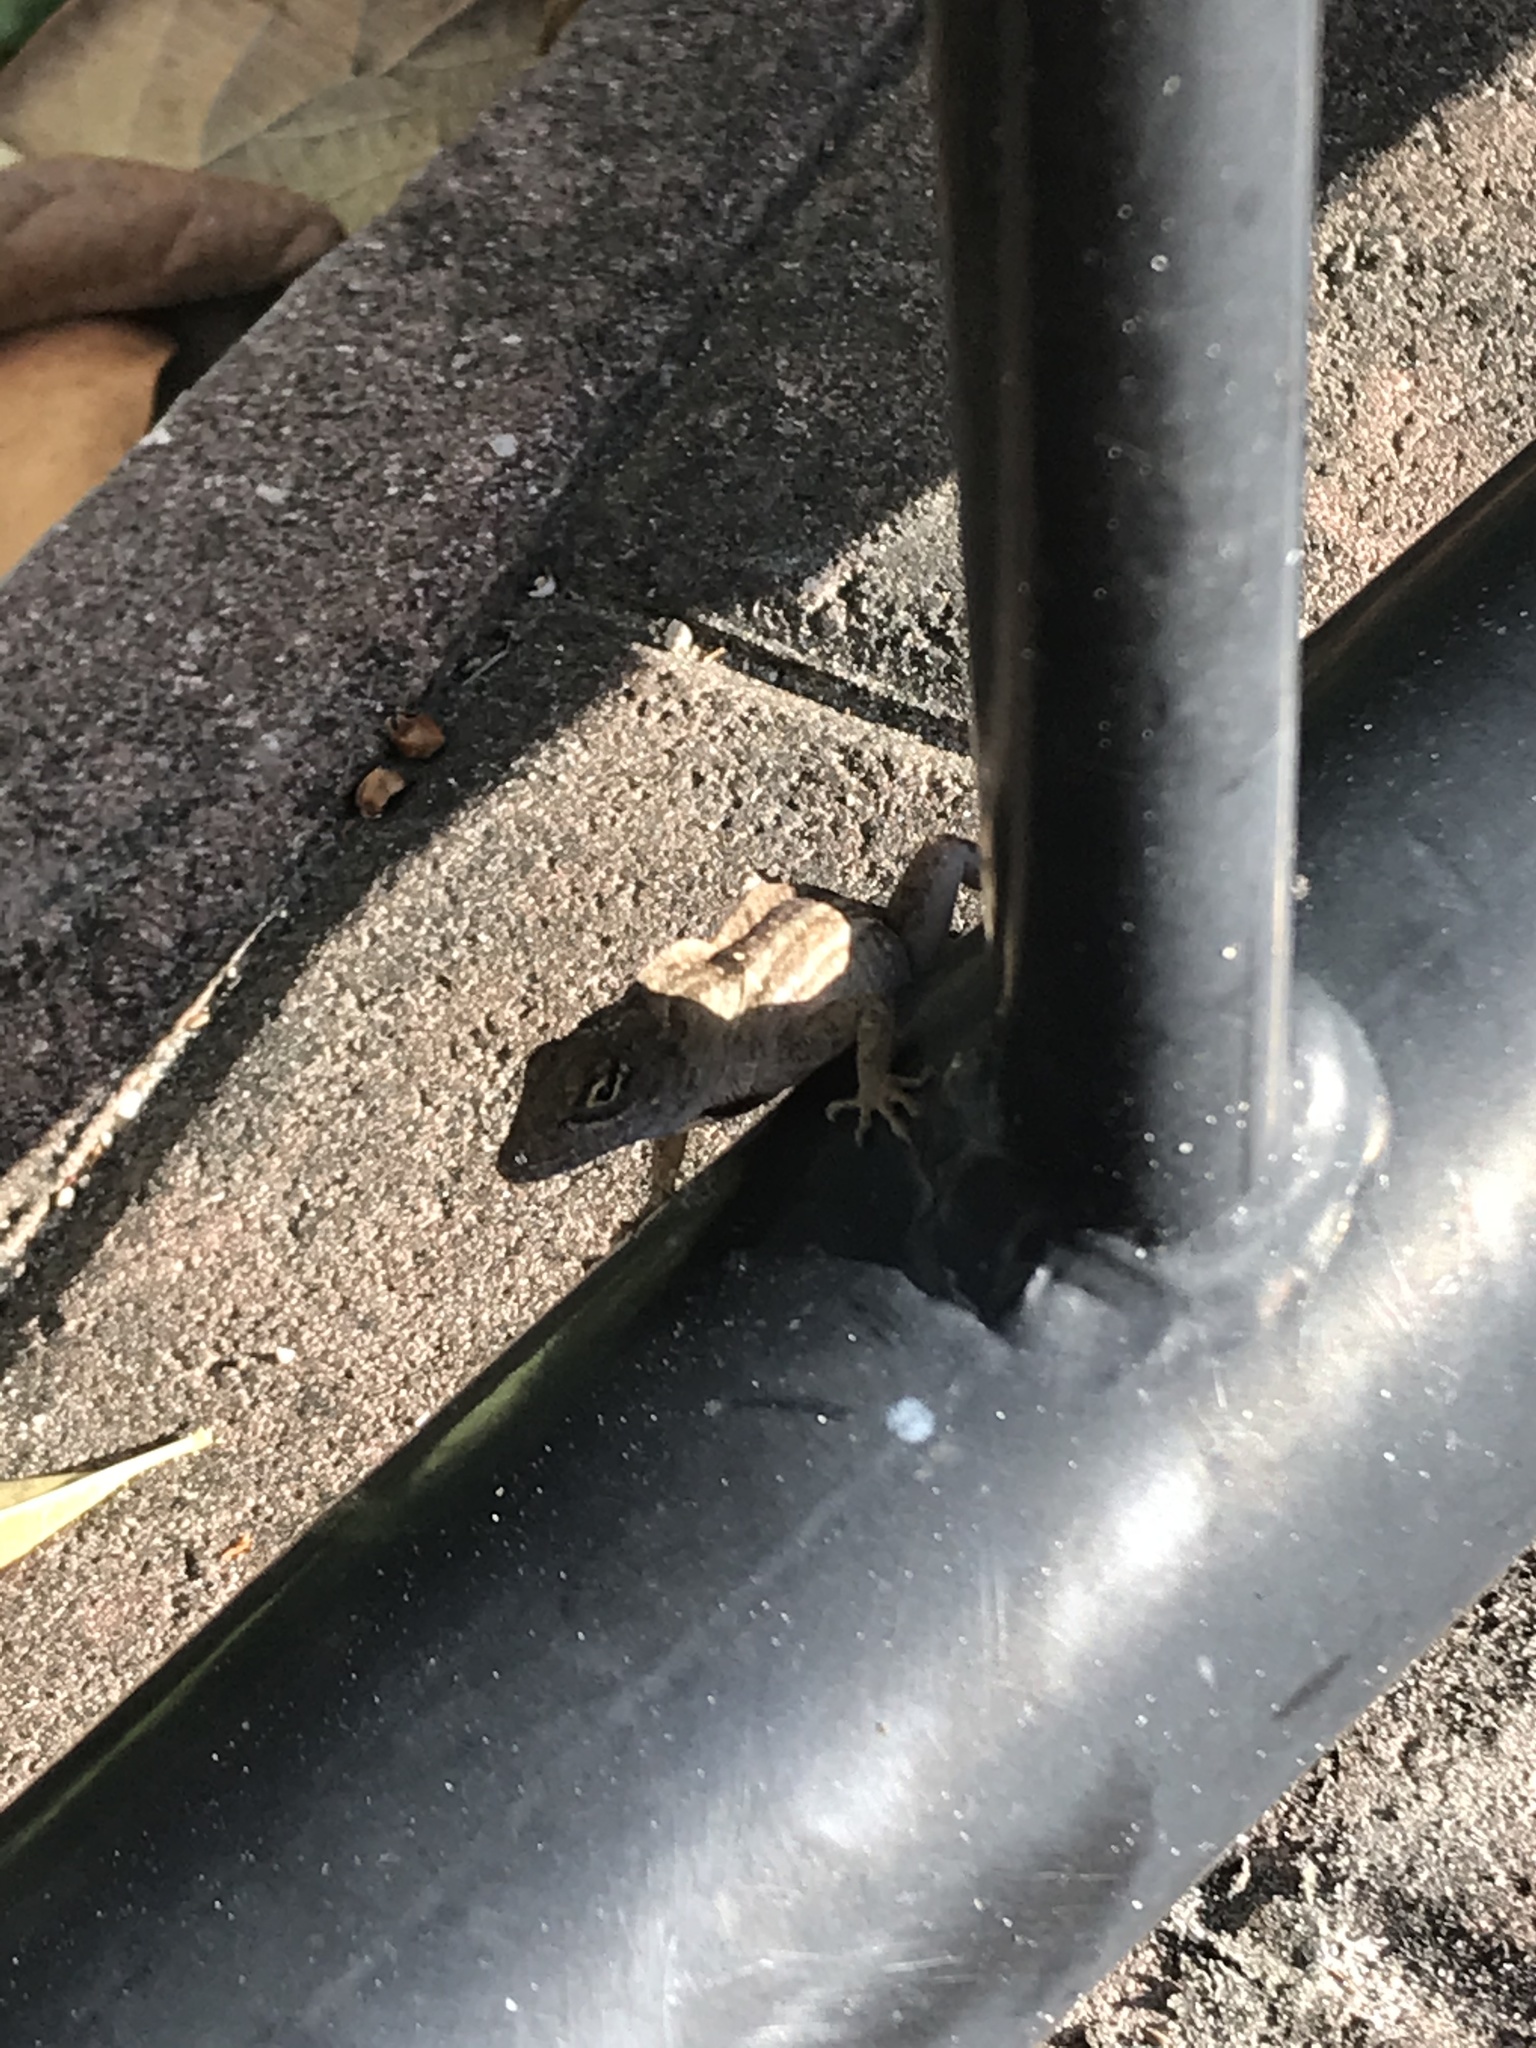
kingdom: Animalia
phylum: Chordata
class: Squamata
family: Dactyloidae
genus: Anolis
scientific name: Anolis sagrei
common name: Brown anole
